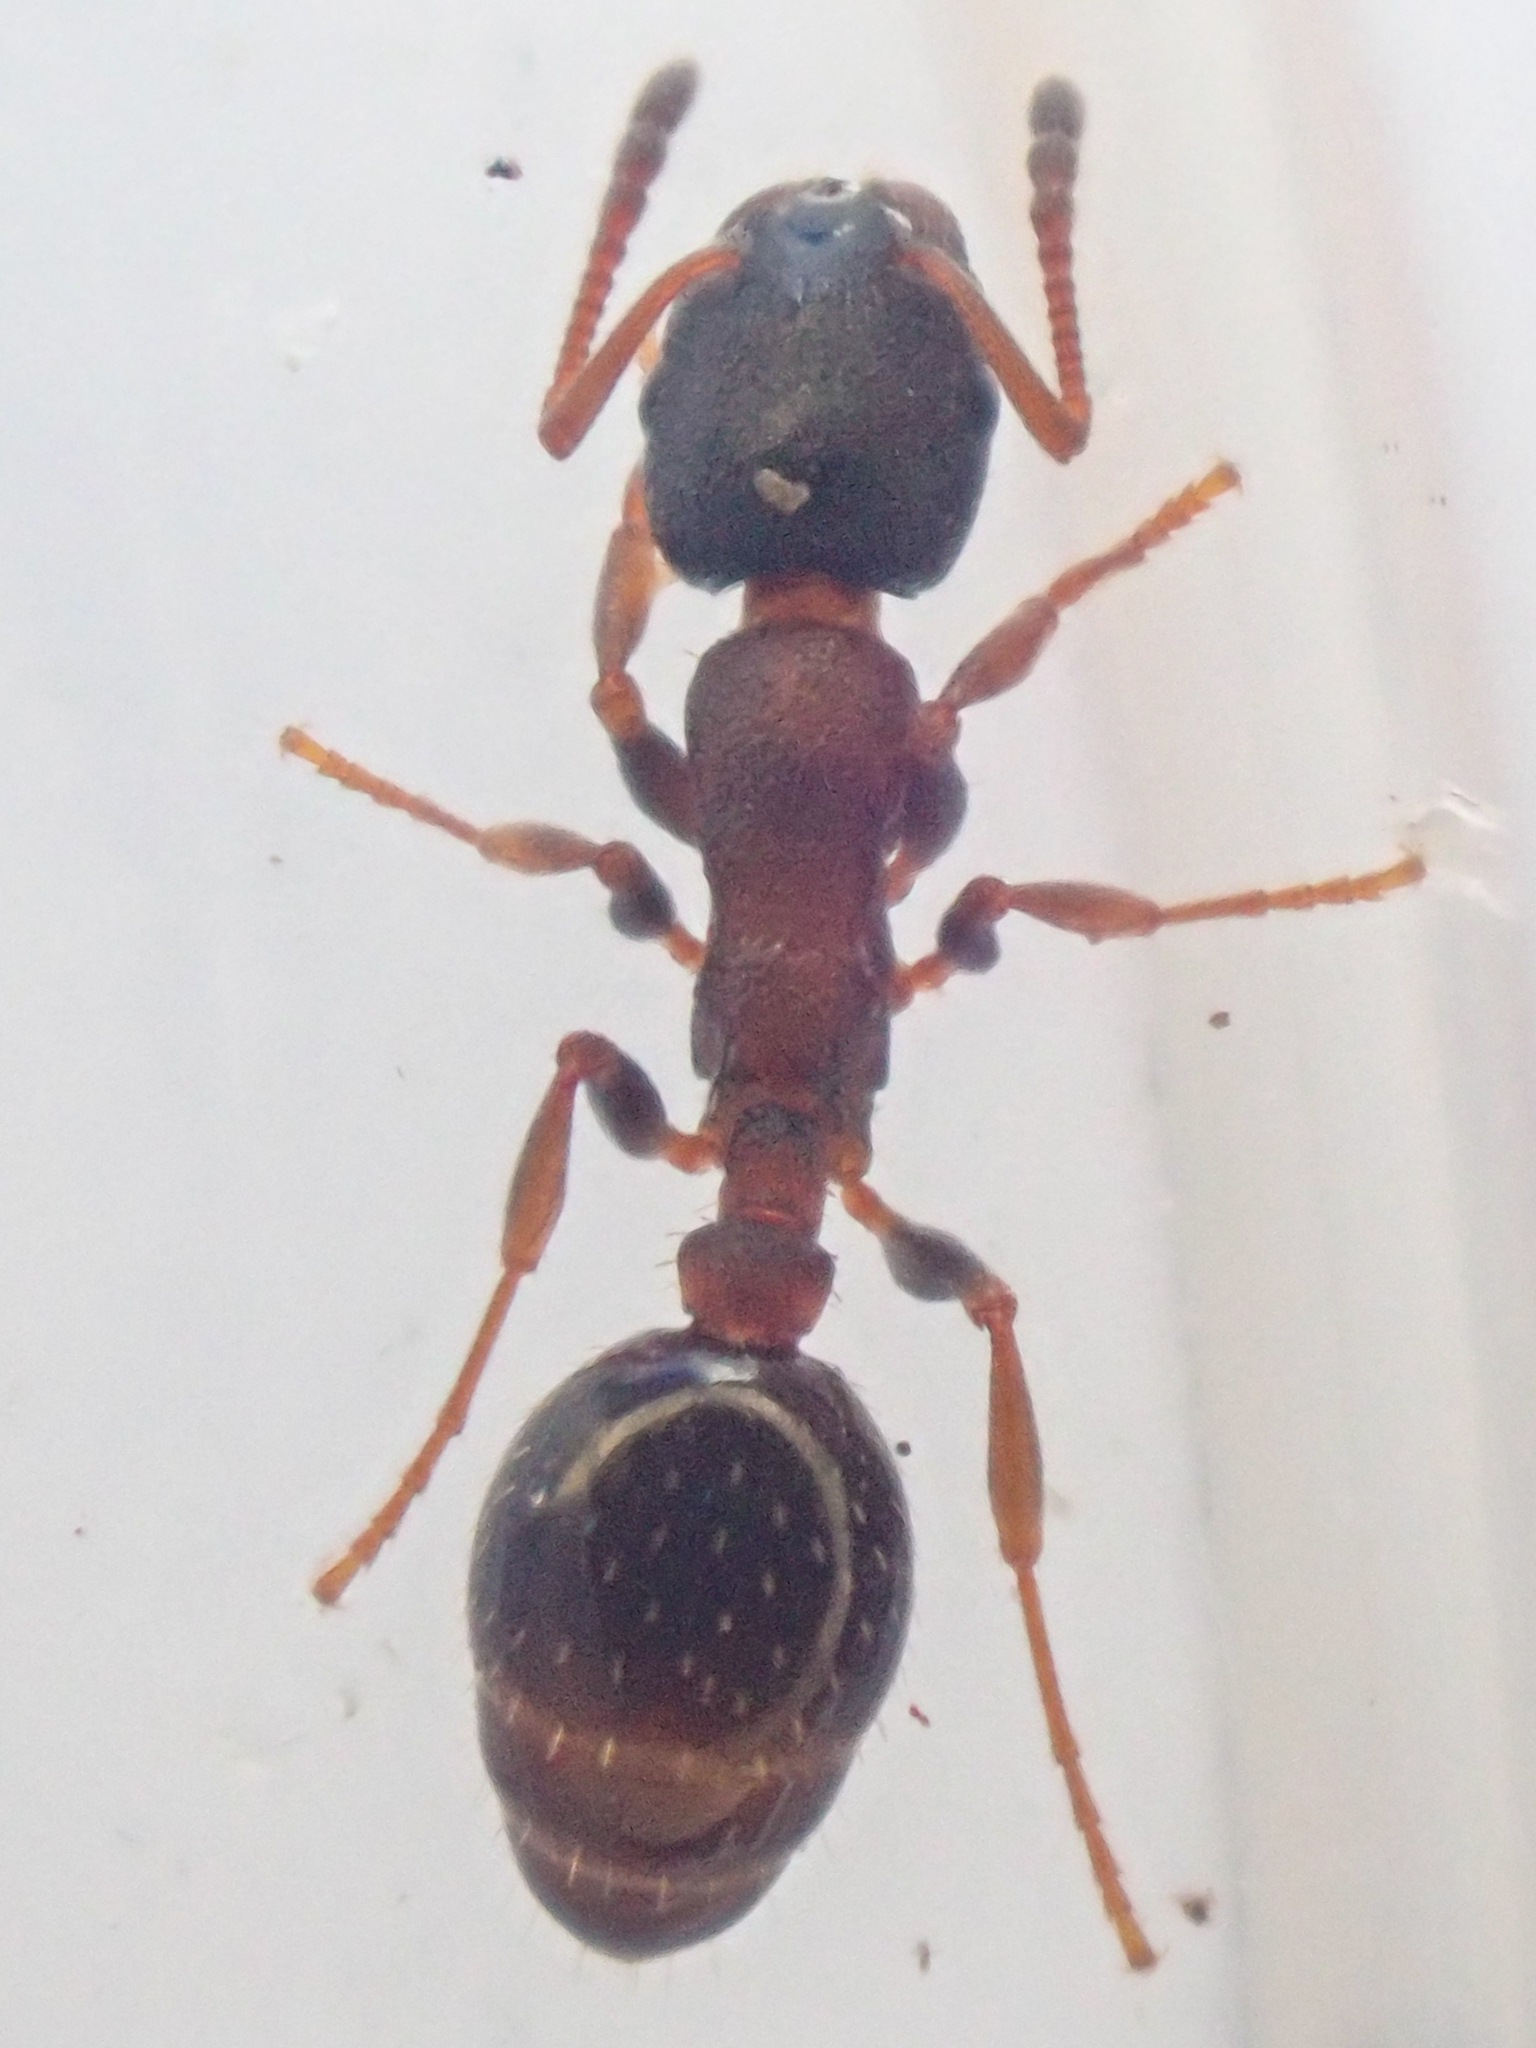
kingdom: Animalia
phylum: Arthropoda
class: Insecta
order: Hymenoptera
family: Formicidae
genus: Leptothorax
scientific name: Leptothorax acervorum
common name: Slender ant
